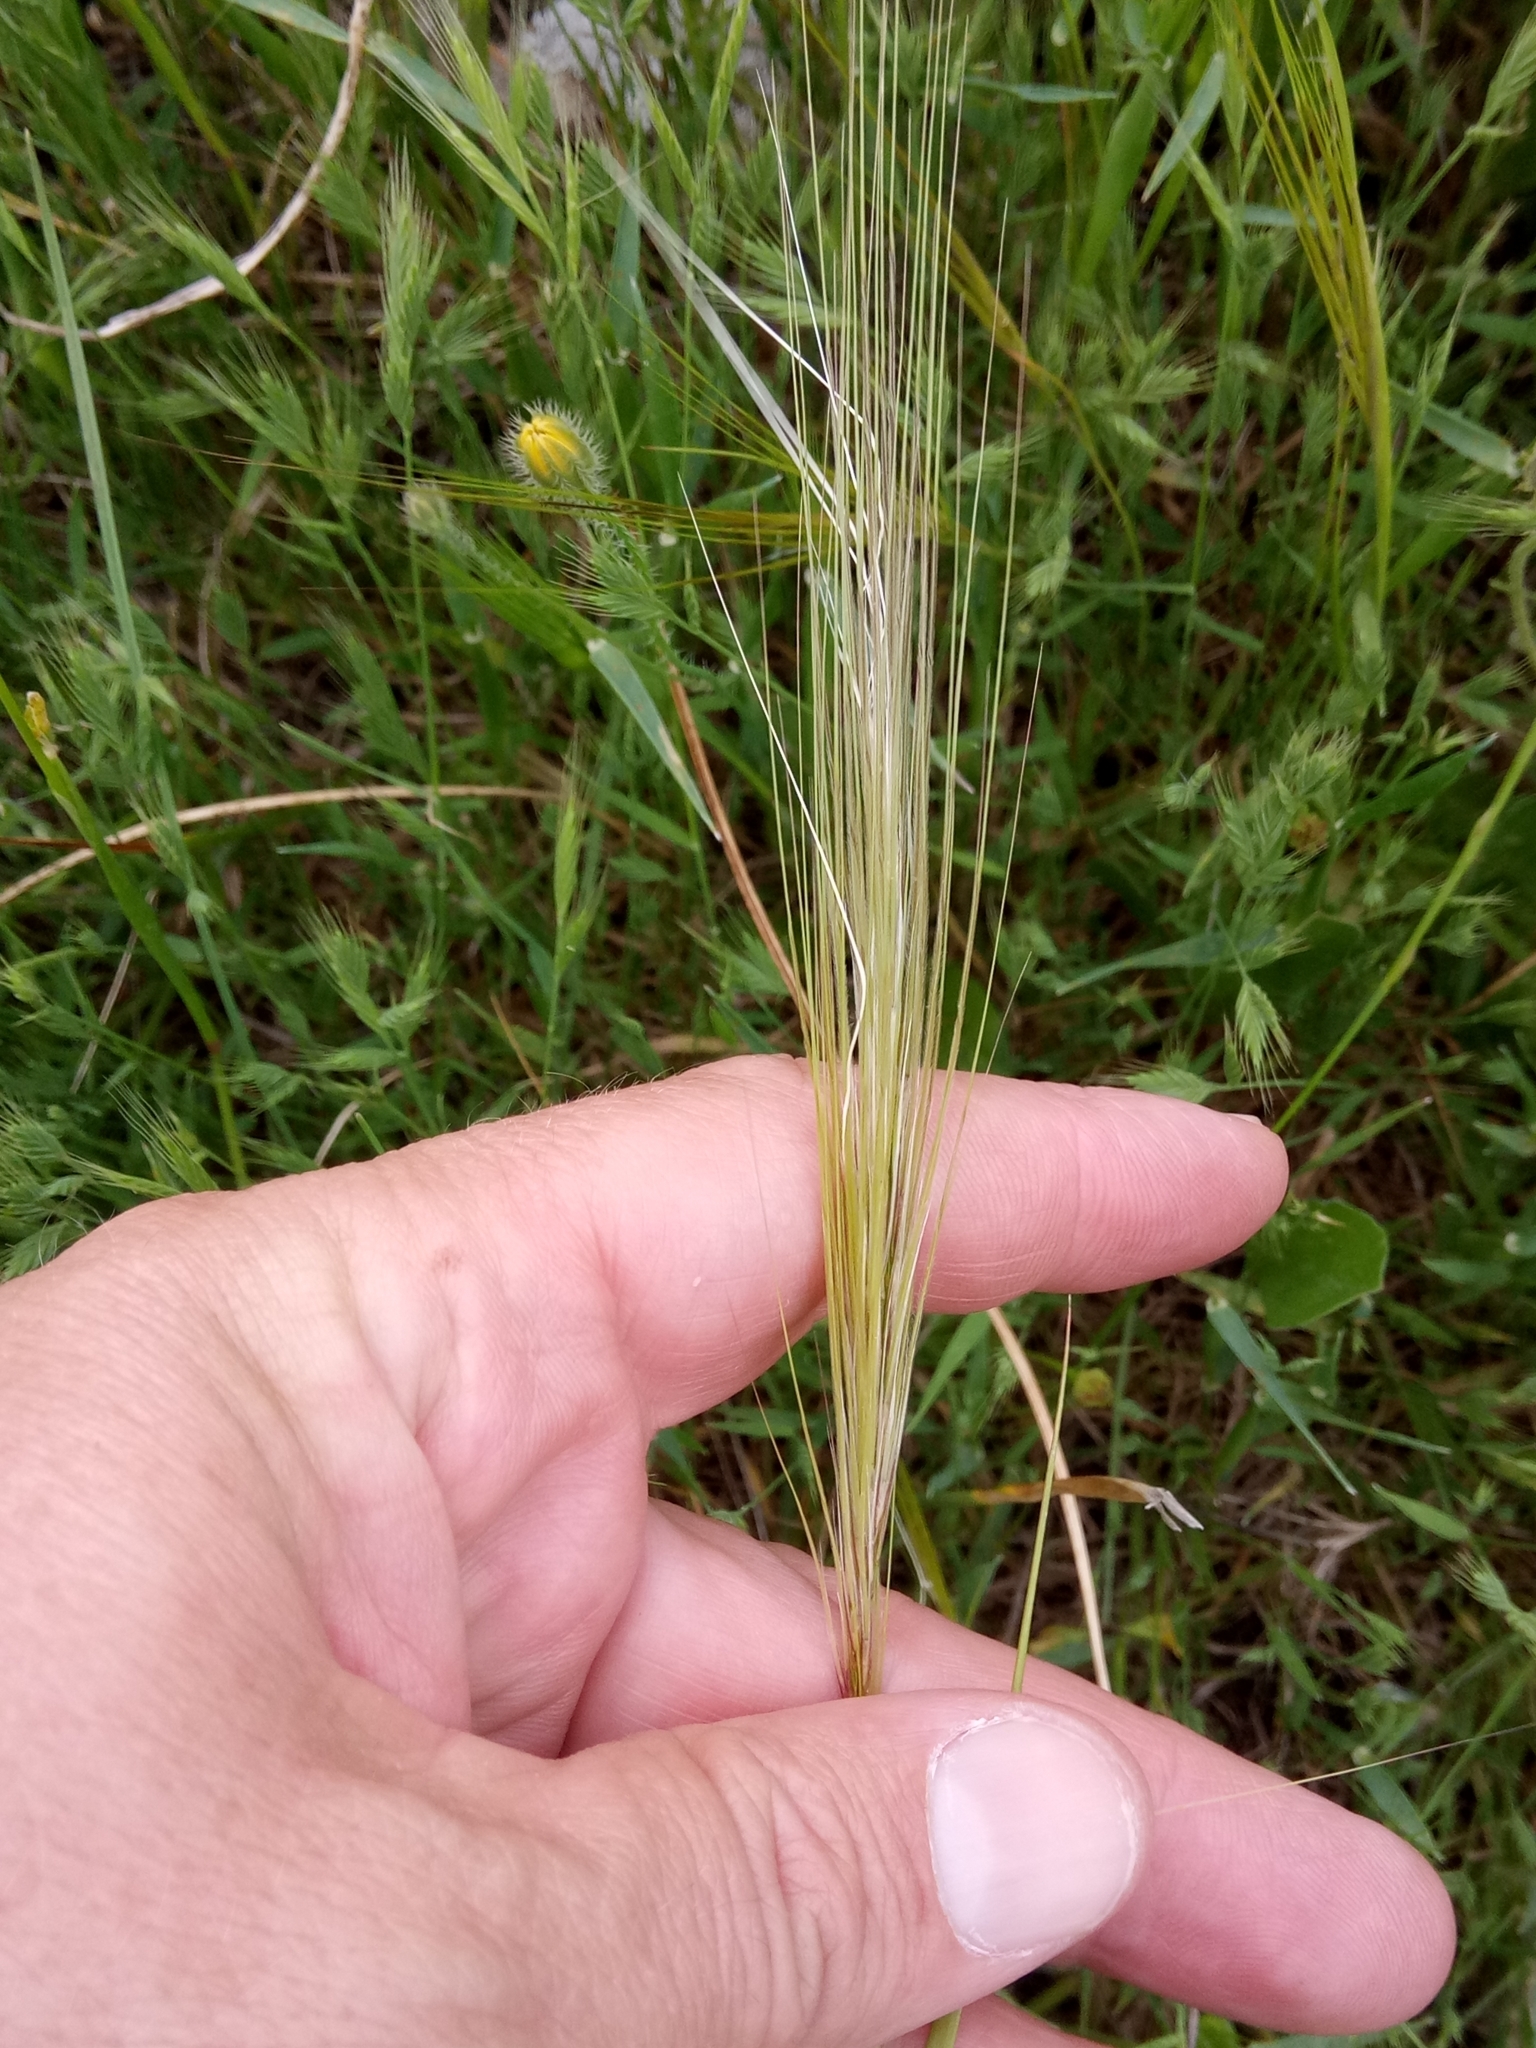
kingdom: Plantae
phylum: Tracheophyta
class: Liliopsida
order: Poales
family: Poaceae
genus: Hordeum
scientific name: Hordeum jubatum
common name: Foxtail barley
